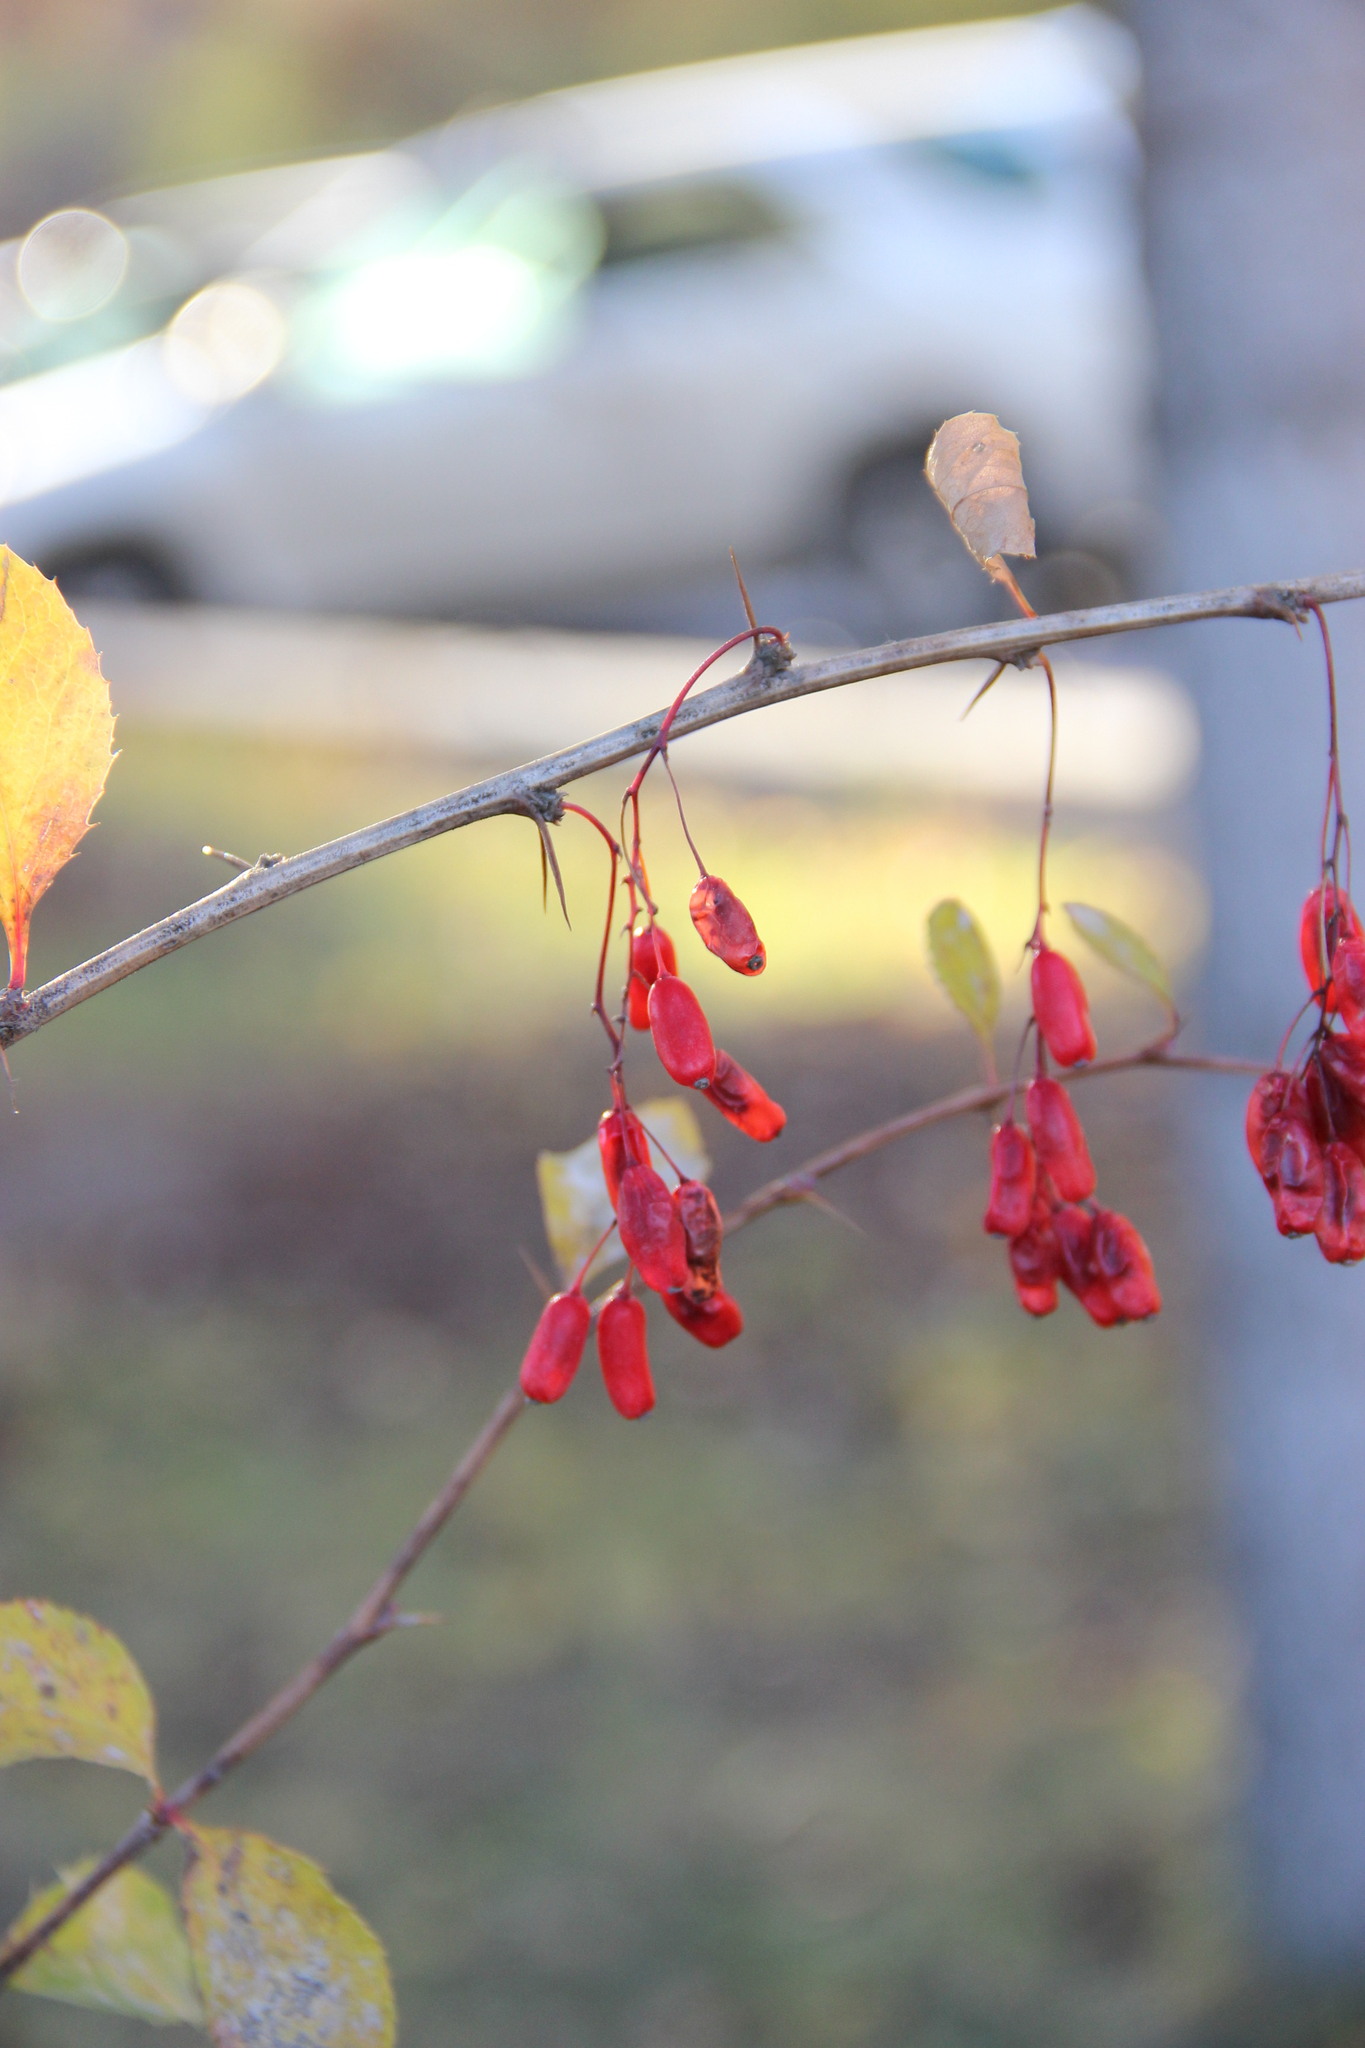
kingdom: Plantae
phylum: Tracheophyta
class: Magnoliopsida
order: Ranunculales
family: Berberidaceae
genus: Berberis
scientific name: Berberis vulgaris
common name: Barberry
